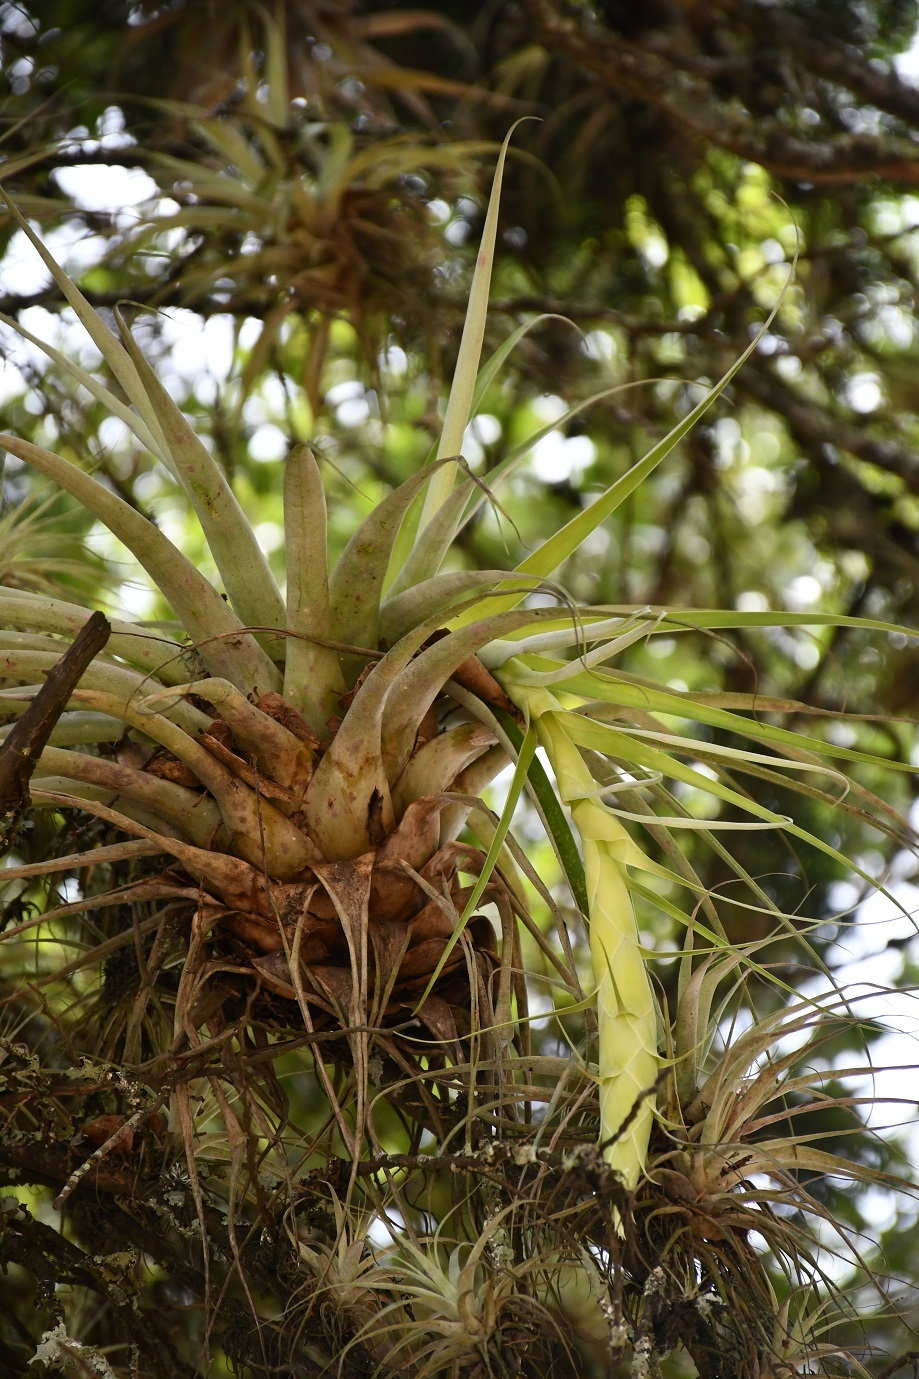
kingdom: Plantae
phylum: Tracheophyta
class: Liliopsida
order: Poales
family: Bromeliaceae
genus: Tillandsia
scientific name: Tillandsia prodigiosa
